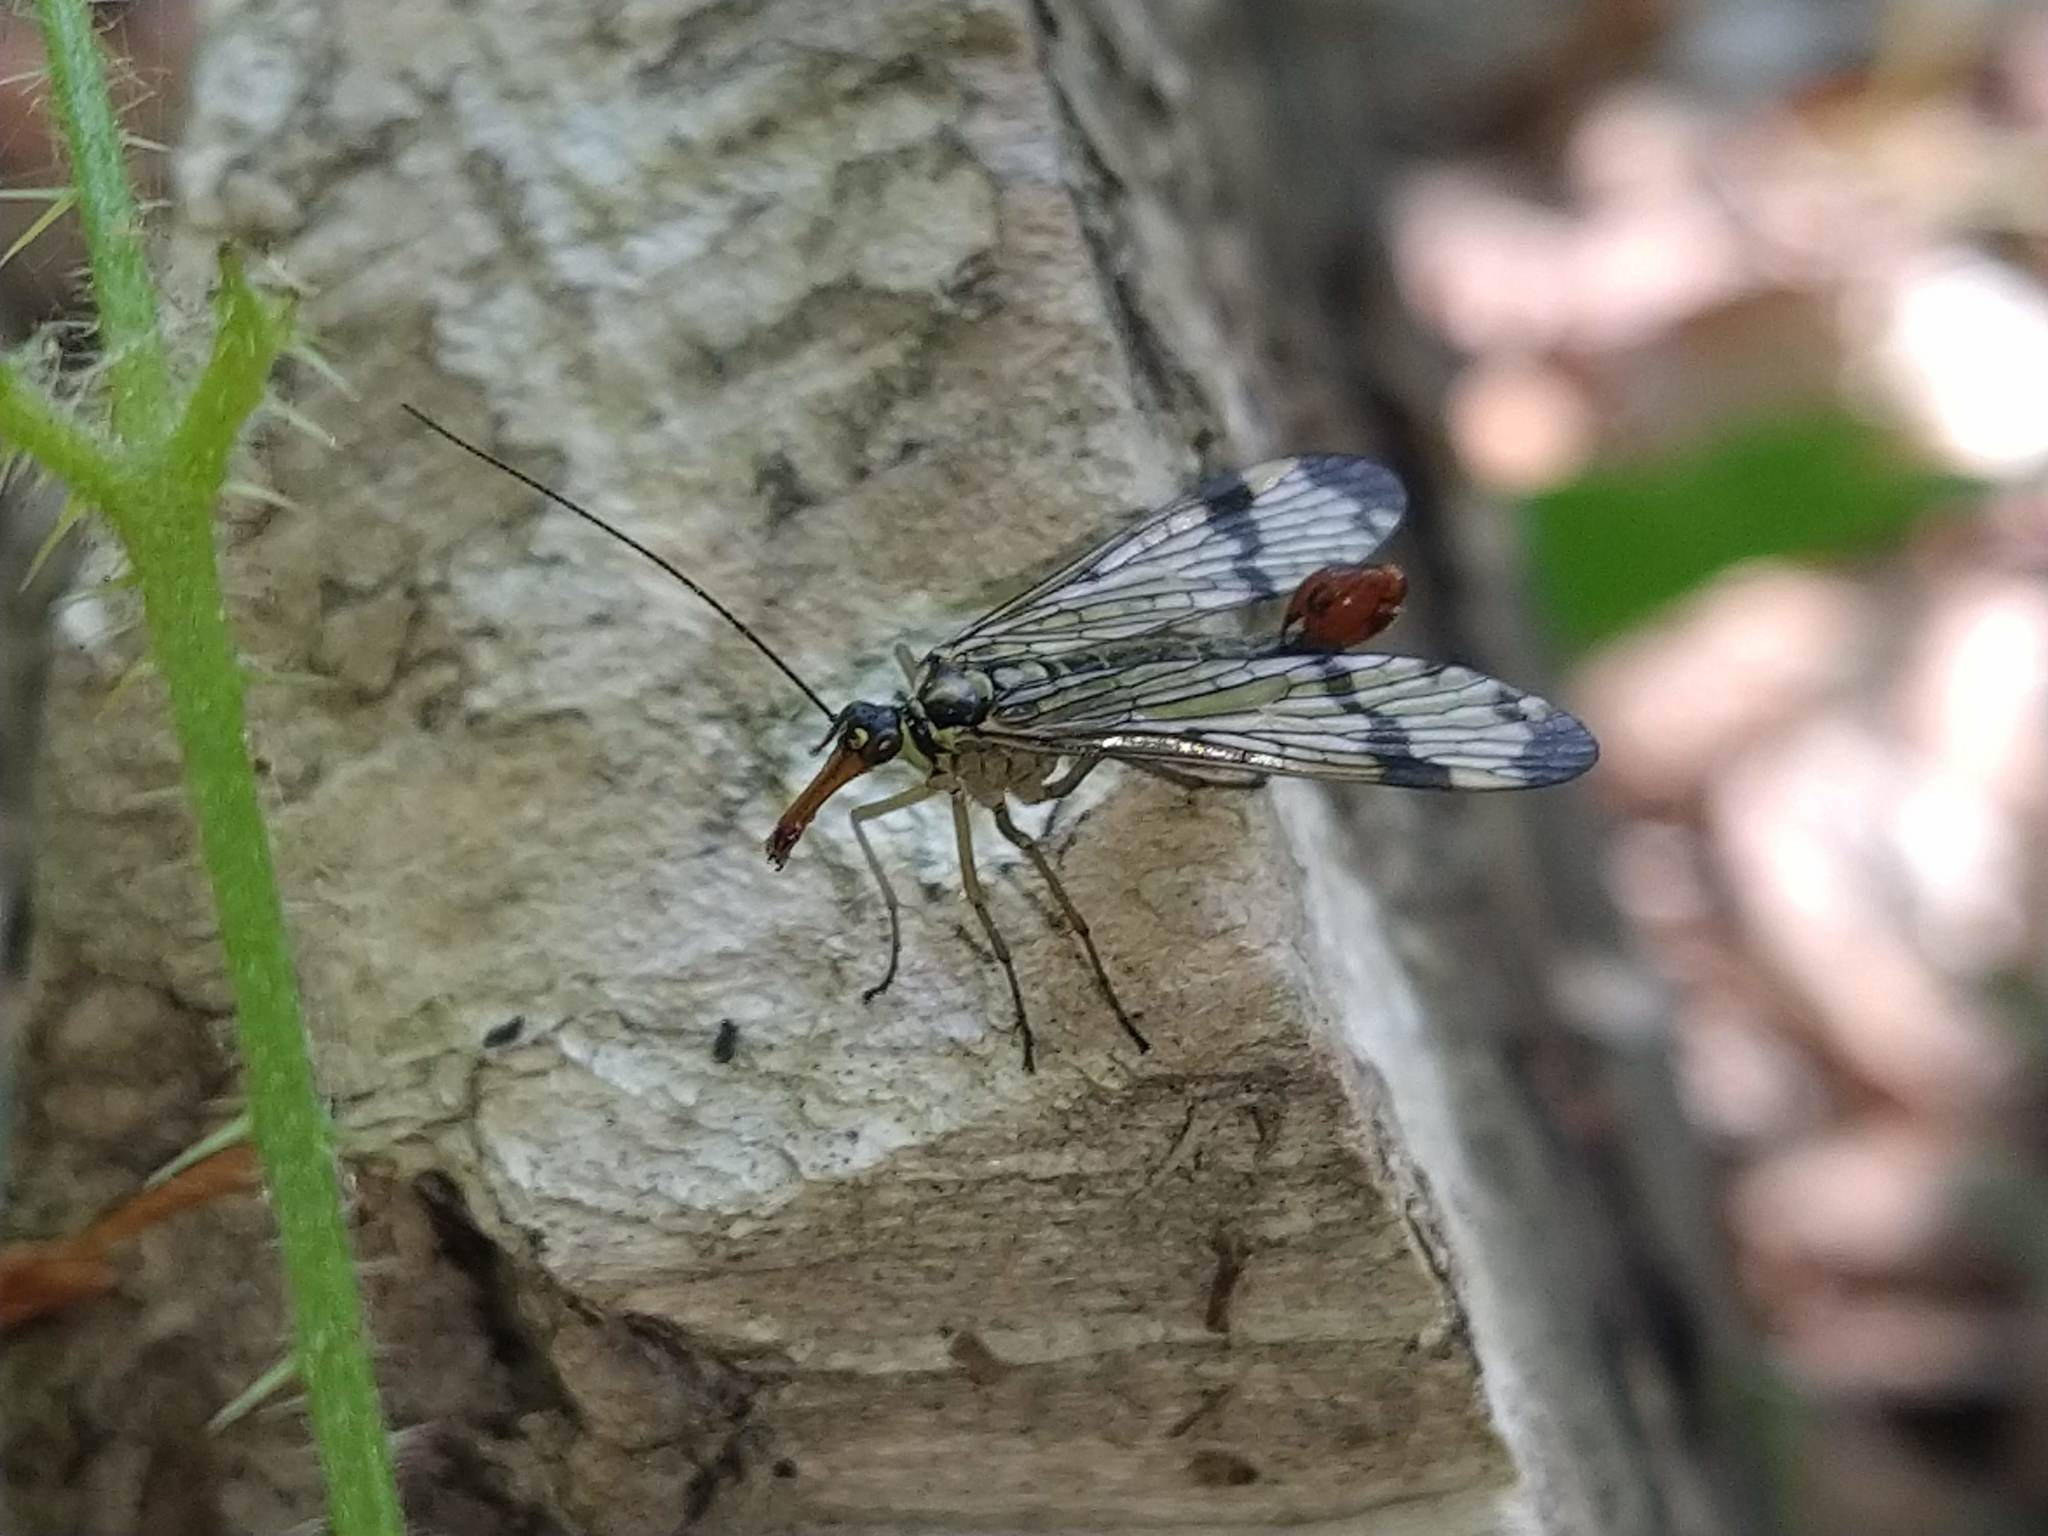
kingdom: Animalia
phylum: Arthropoda
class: Insecta
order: Mecoptera
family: Panorpidae
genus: Panorpa
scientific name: Panorpa communis
